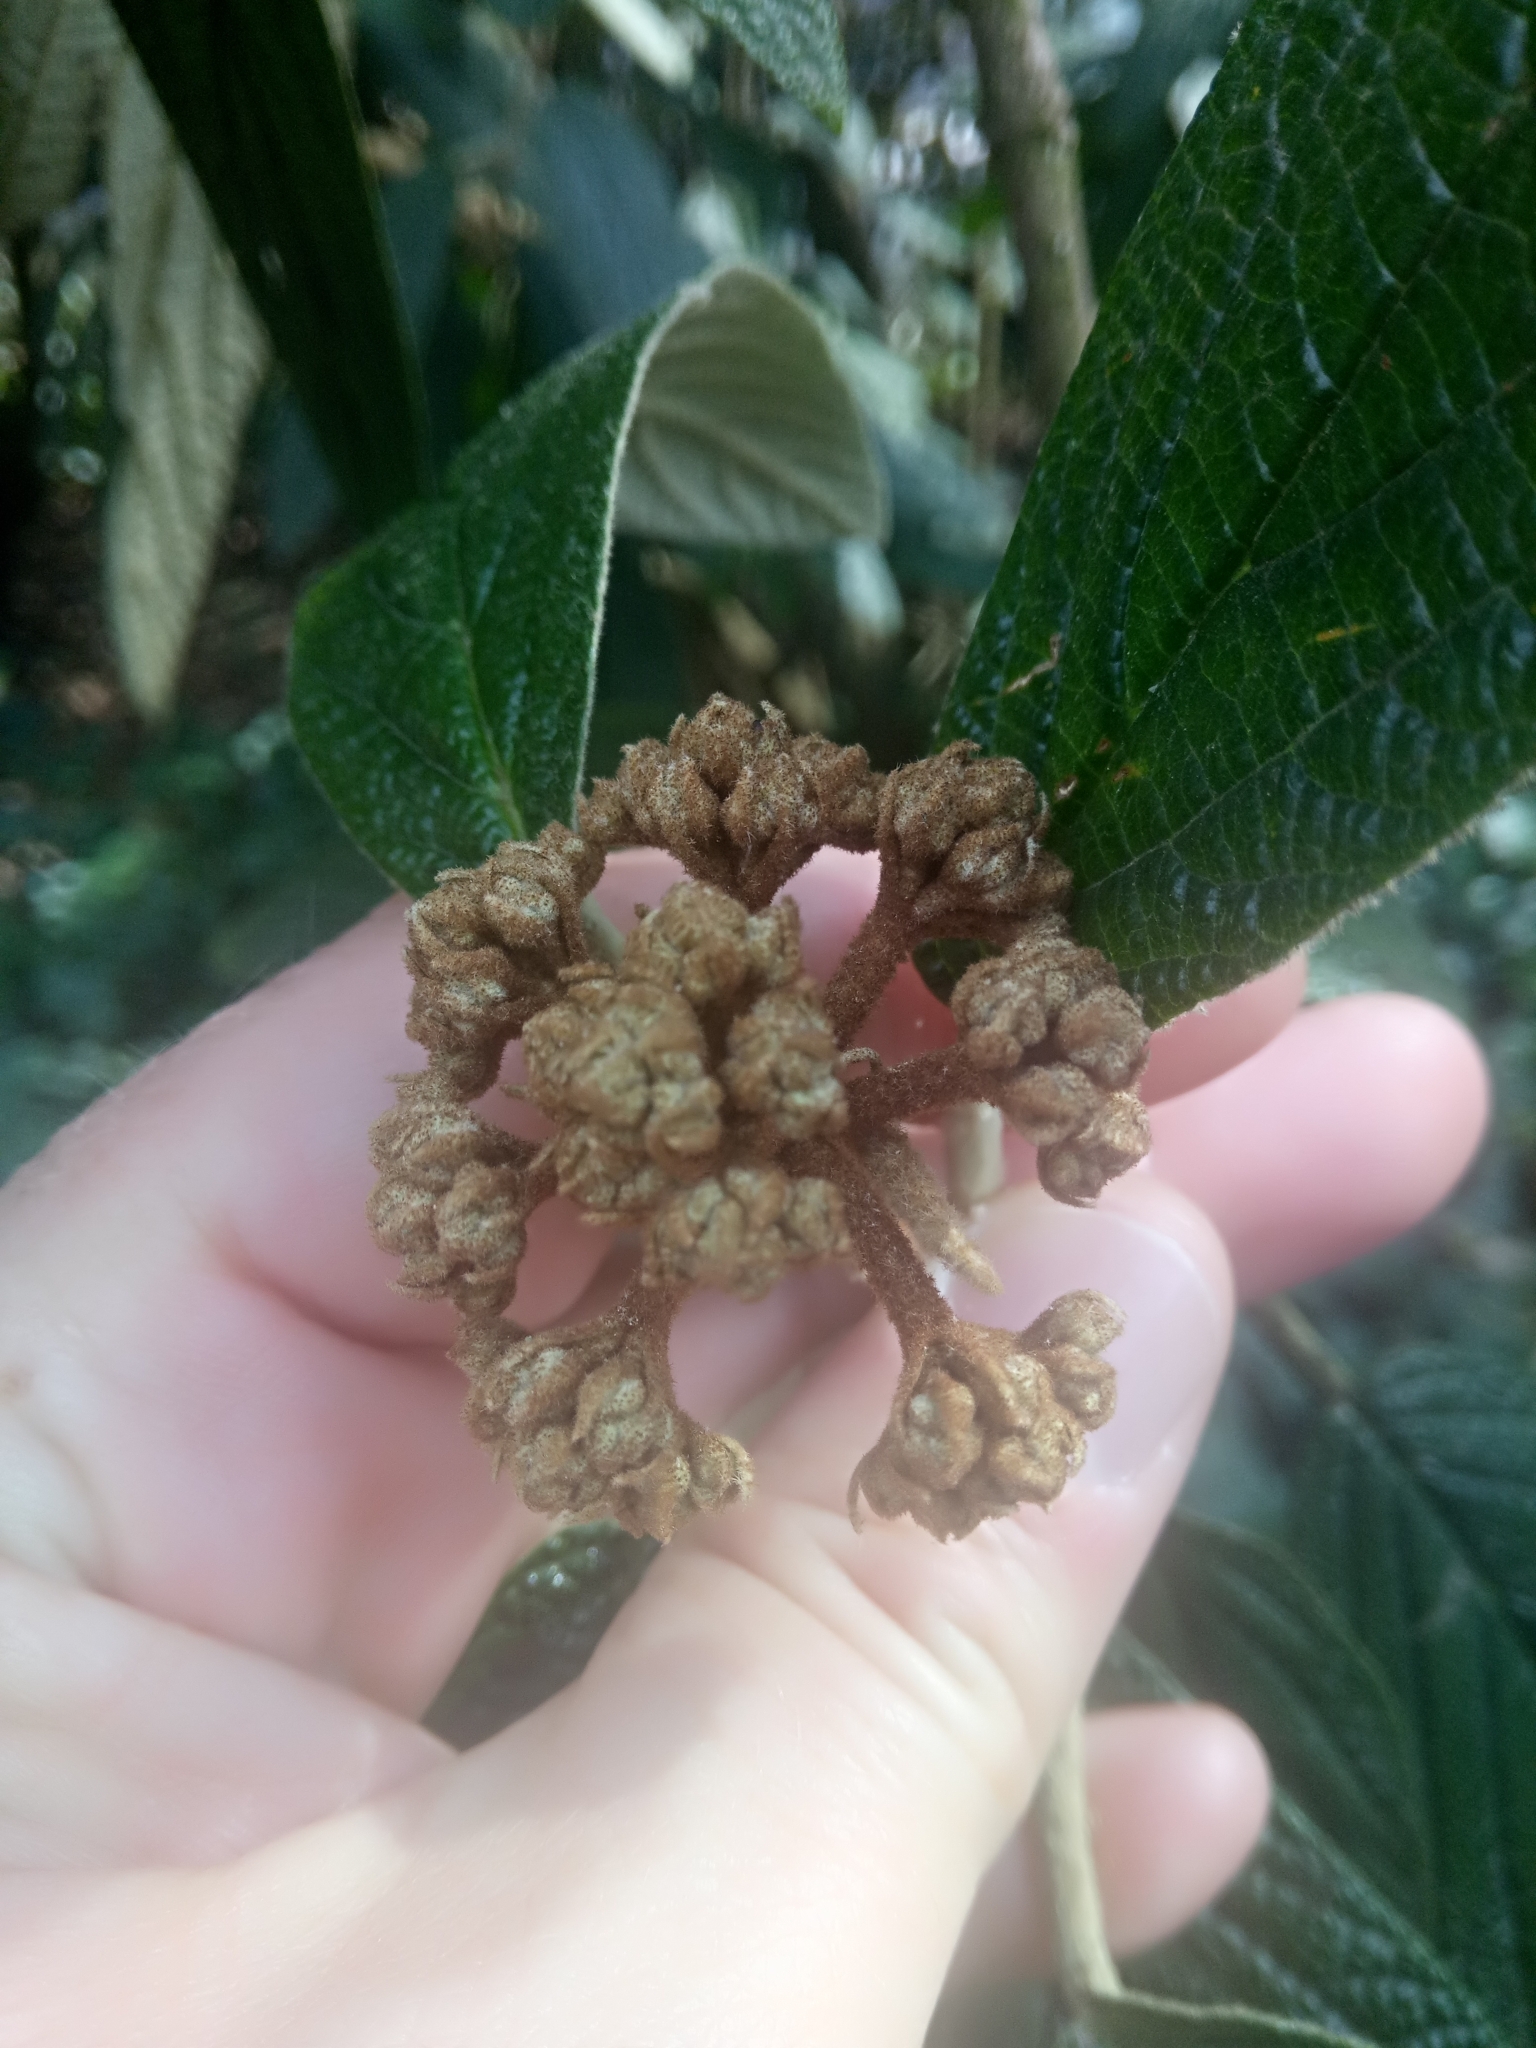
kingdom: Plantae
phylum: Tracheophyta
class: Magnoliopsida
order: Dipsacales
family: Viburnaceae
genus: Viburnum
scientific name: Viburnum rhytidophyllum
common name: Wrinkled viburnum
